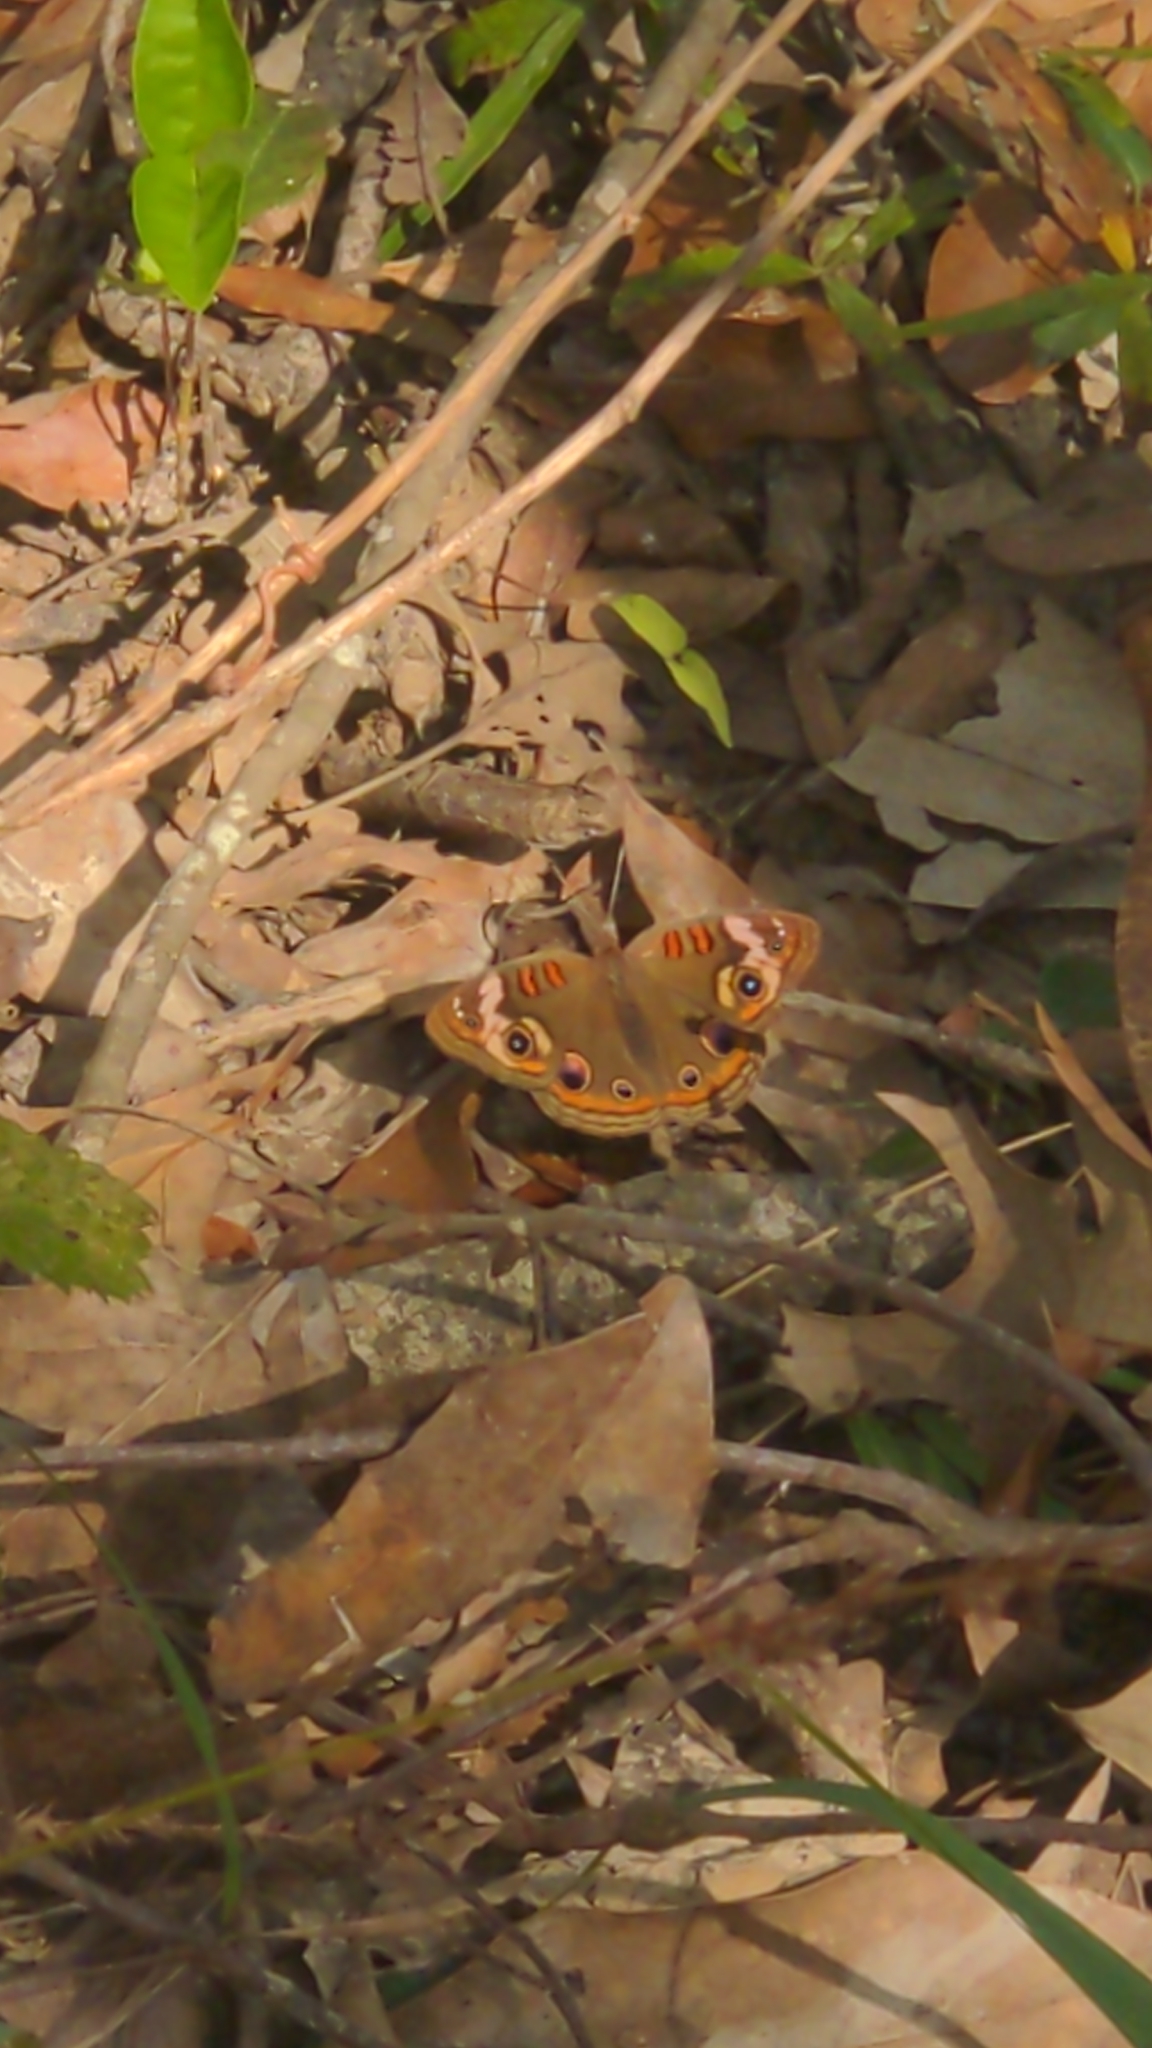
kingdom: Animalia
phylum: Arthropoda
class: Insecta
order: Lepidoptera
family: Nymphalidae
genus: Junonia
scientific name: Junonia coenia
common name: Common buckeye
